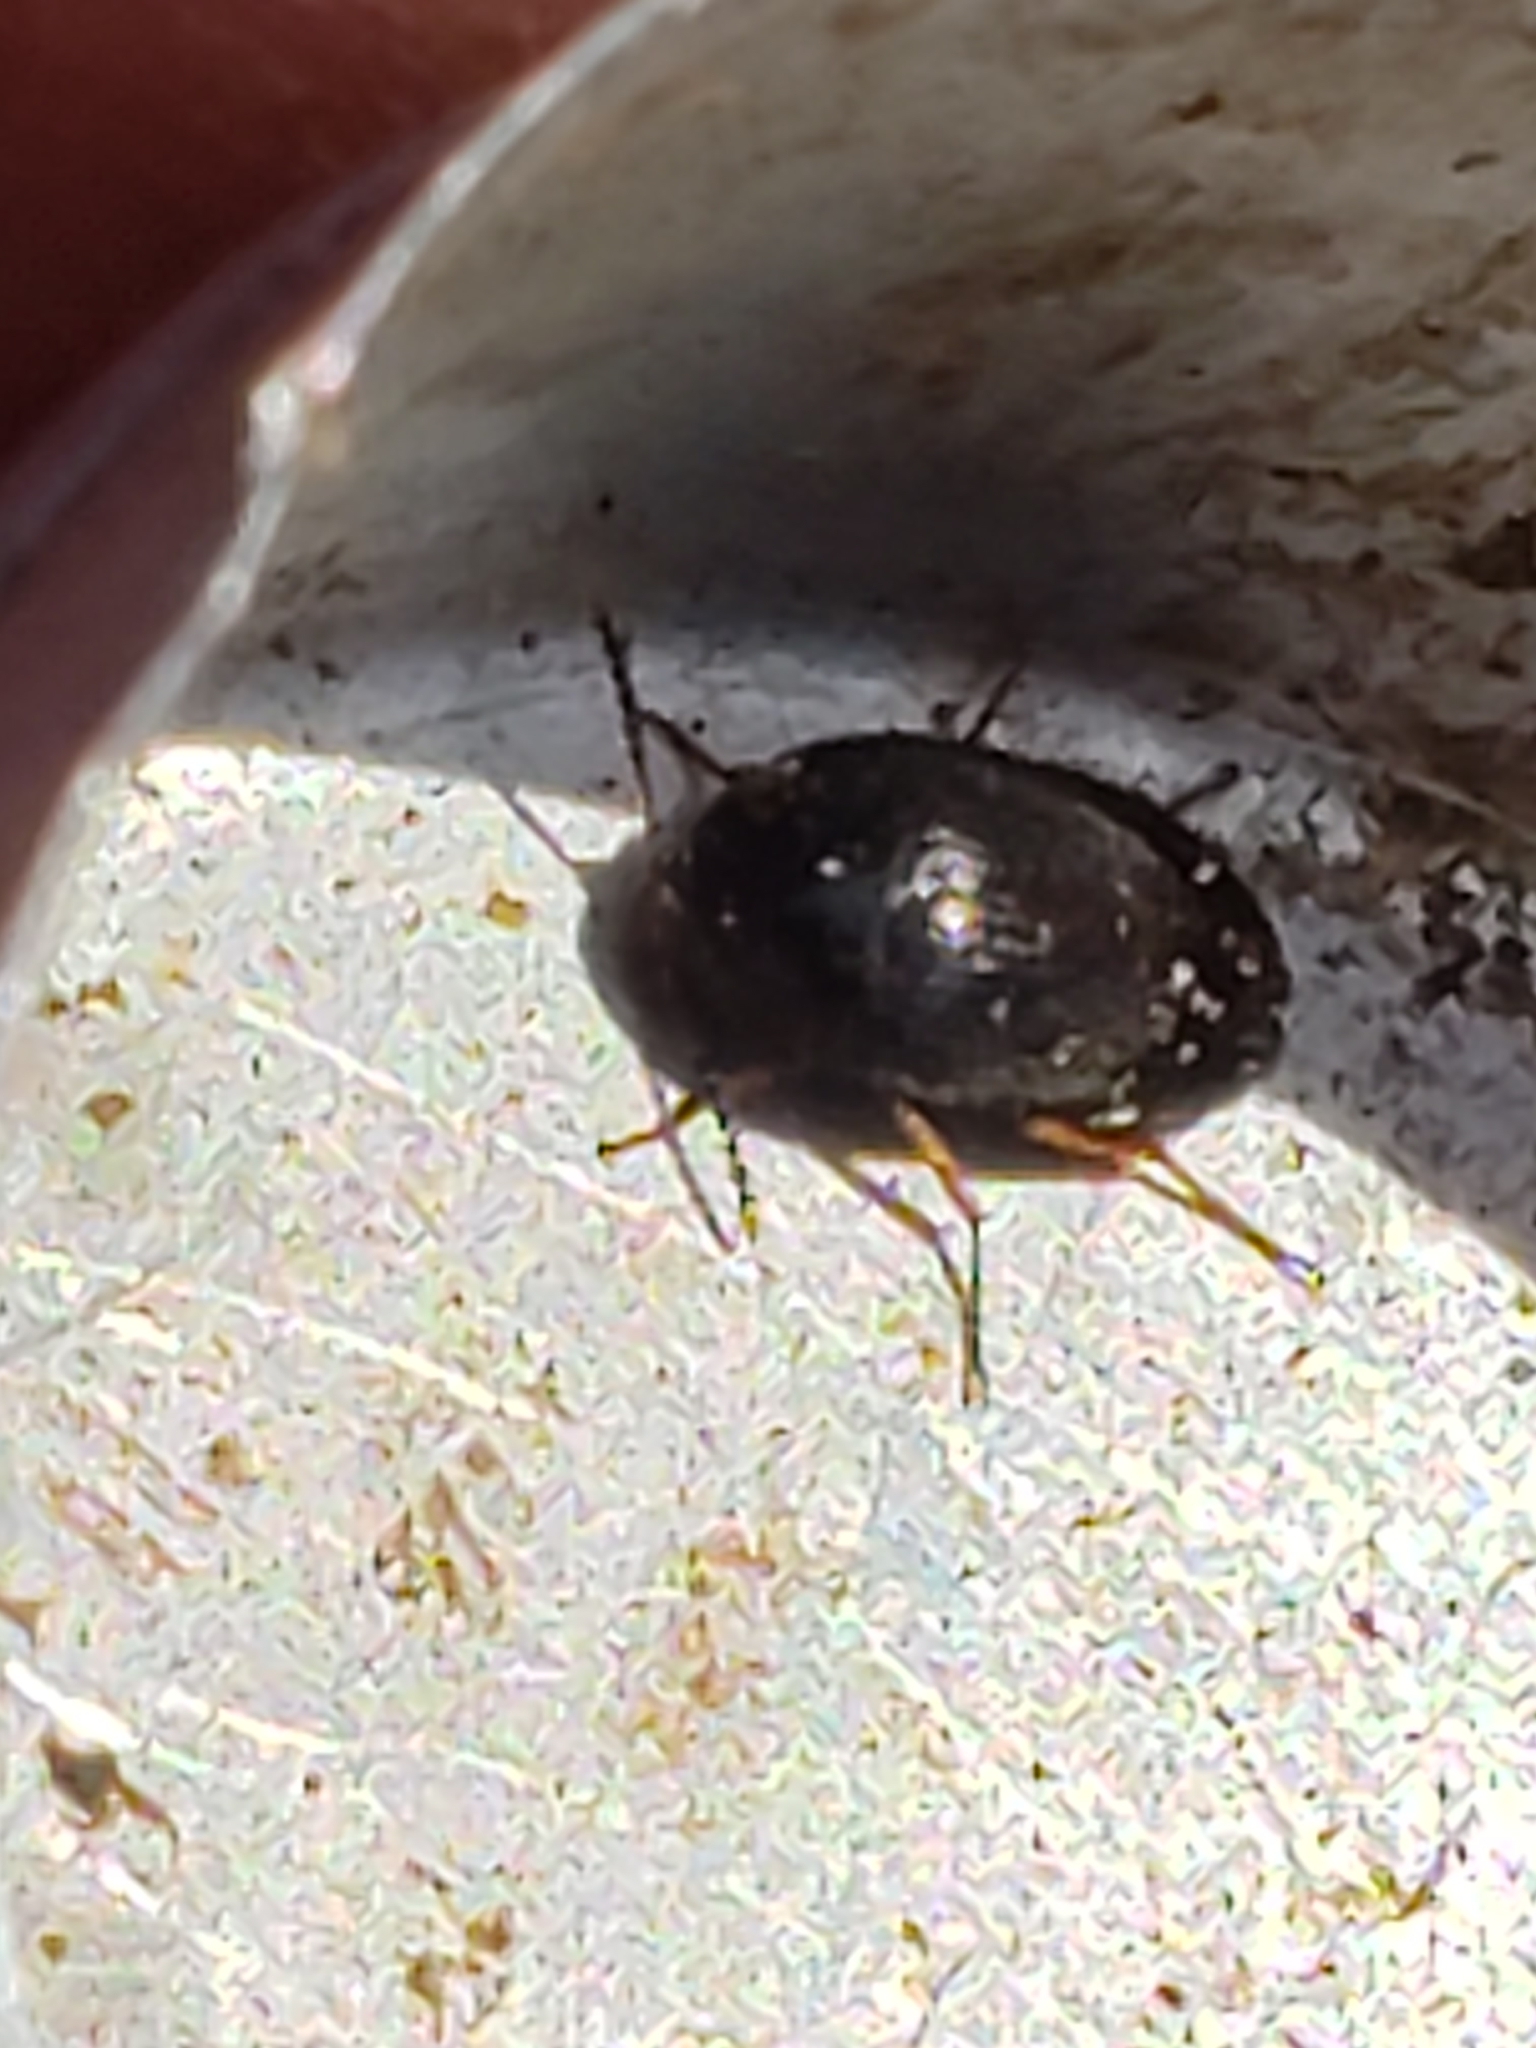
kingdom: Animalia
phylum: Arthropoda
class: Insecta
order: Coleoptera
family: Tetratomidae
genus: Eustrophopsis
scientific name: Eustrophopsis bicolor
